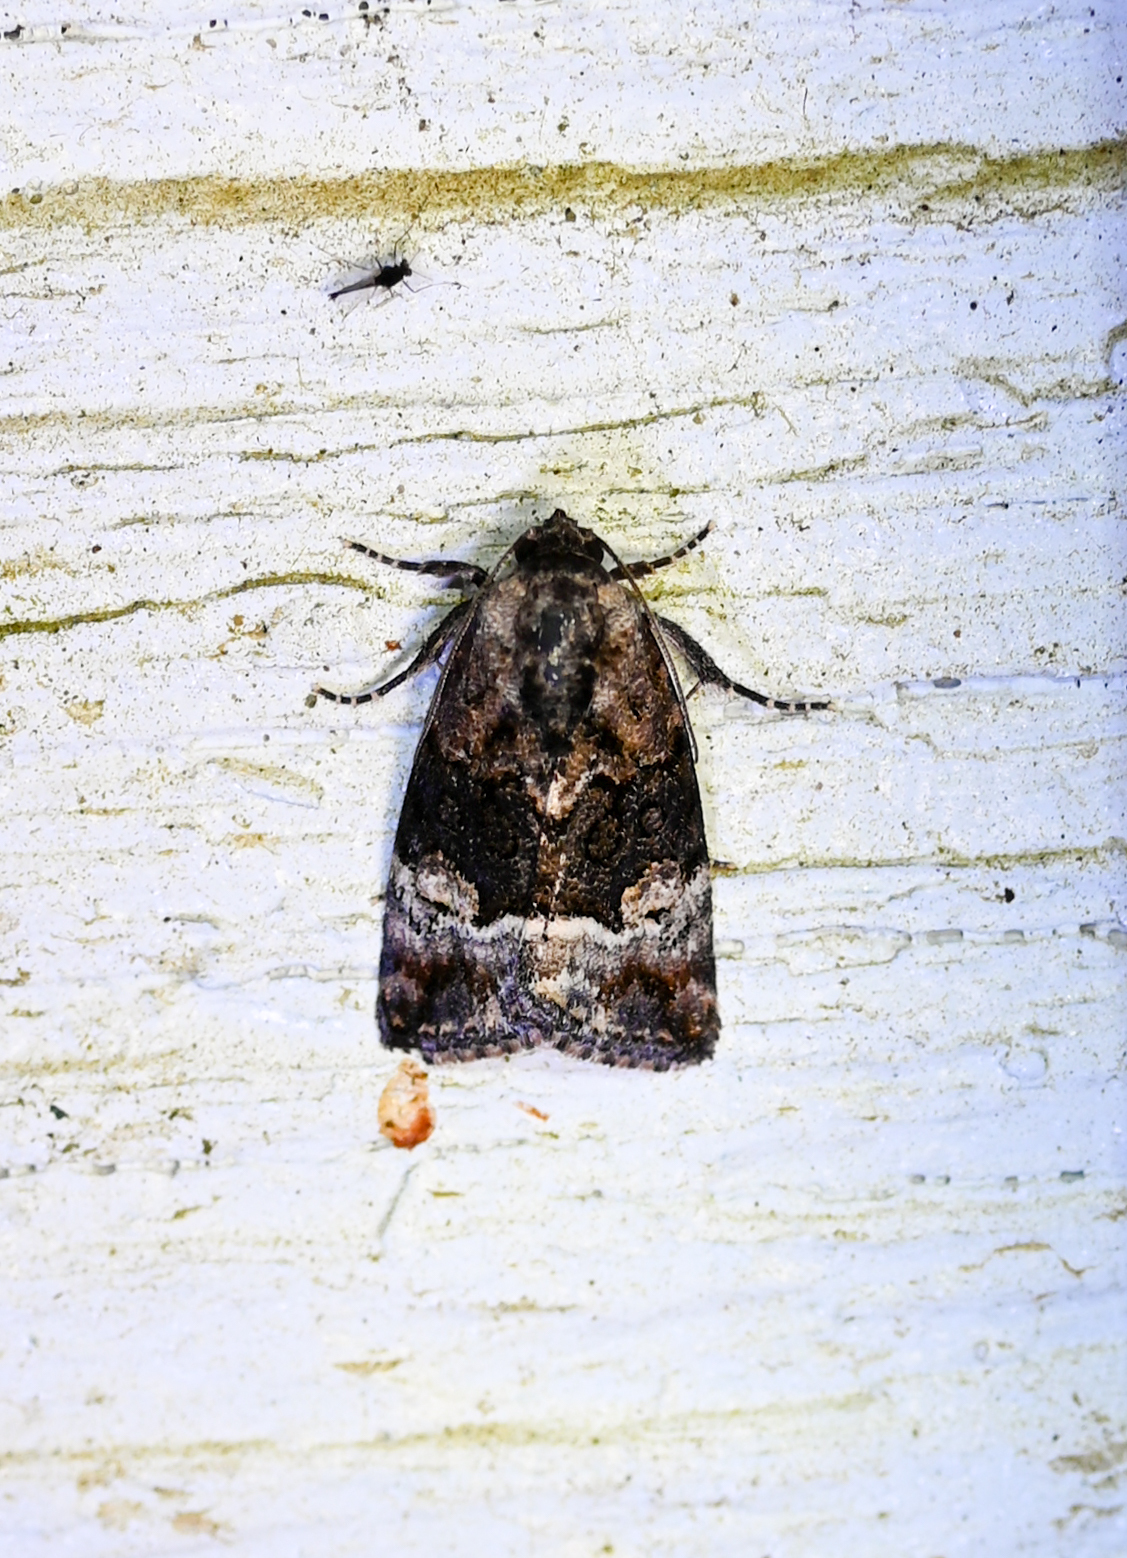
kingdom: Animalia
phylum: Arthropoda
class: Insecta
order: Lepidoptera
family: Noctuidae
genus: Elaphria
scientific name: Elaphria georgei
